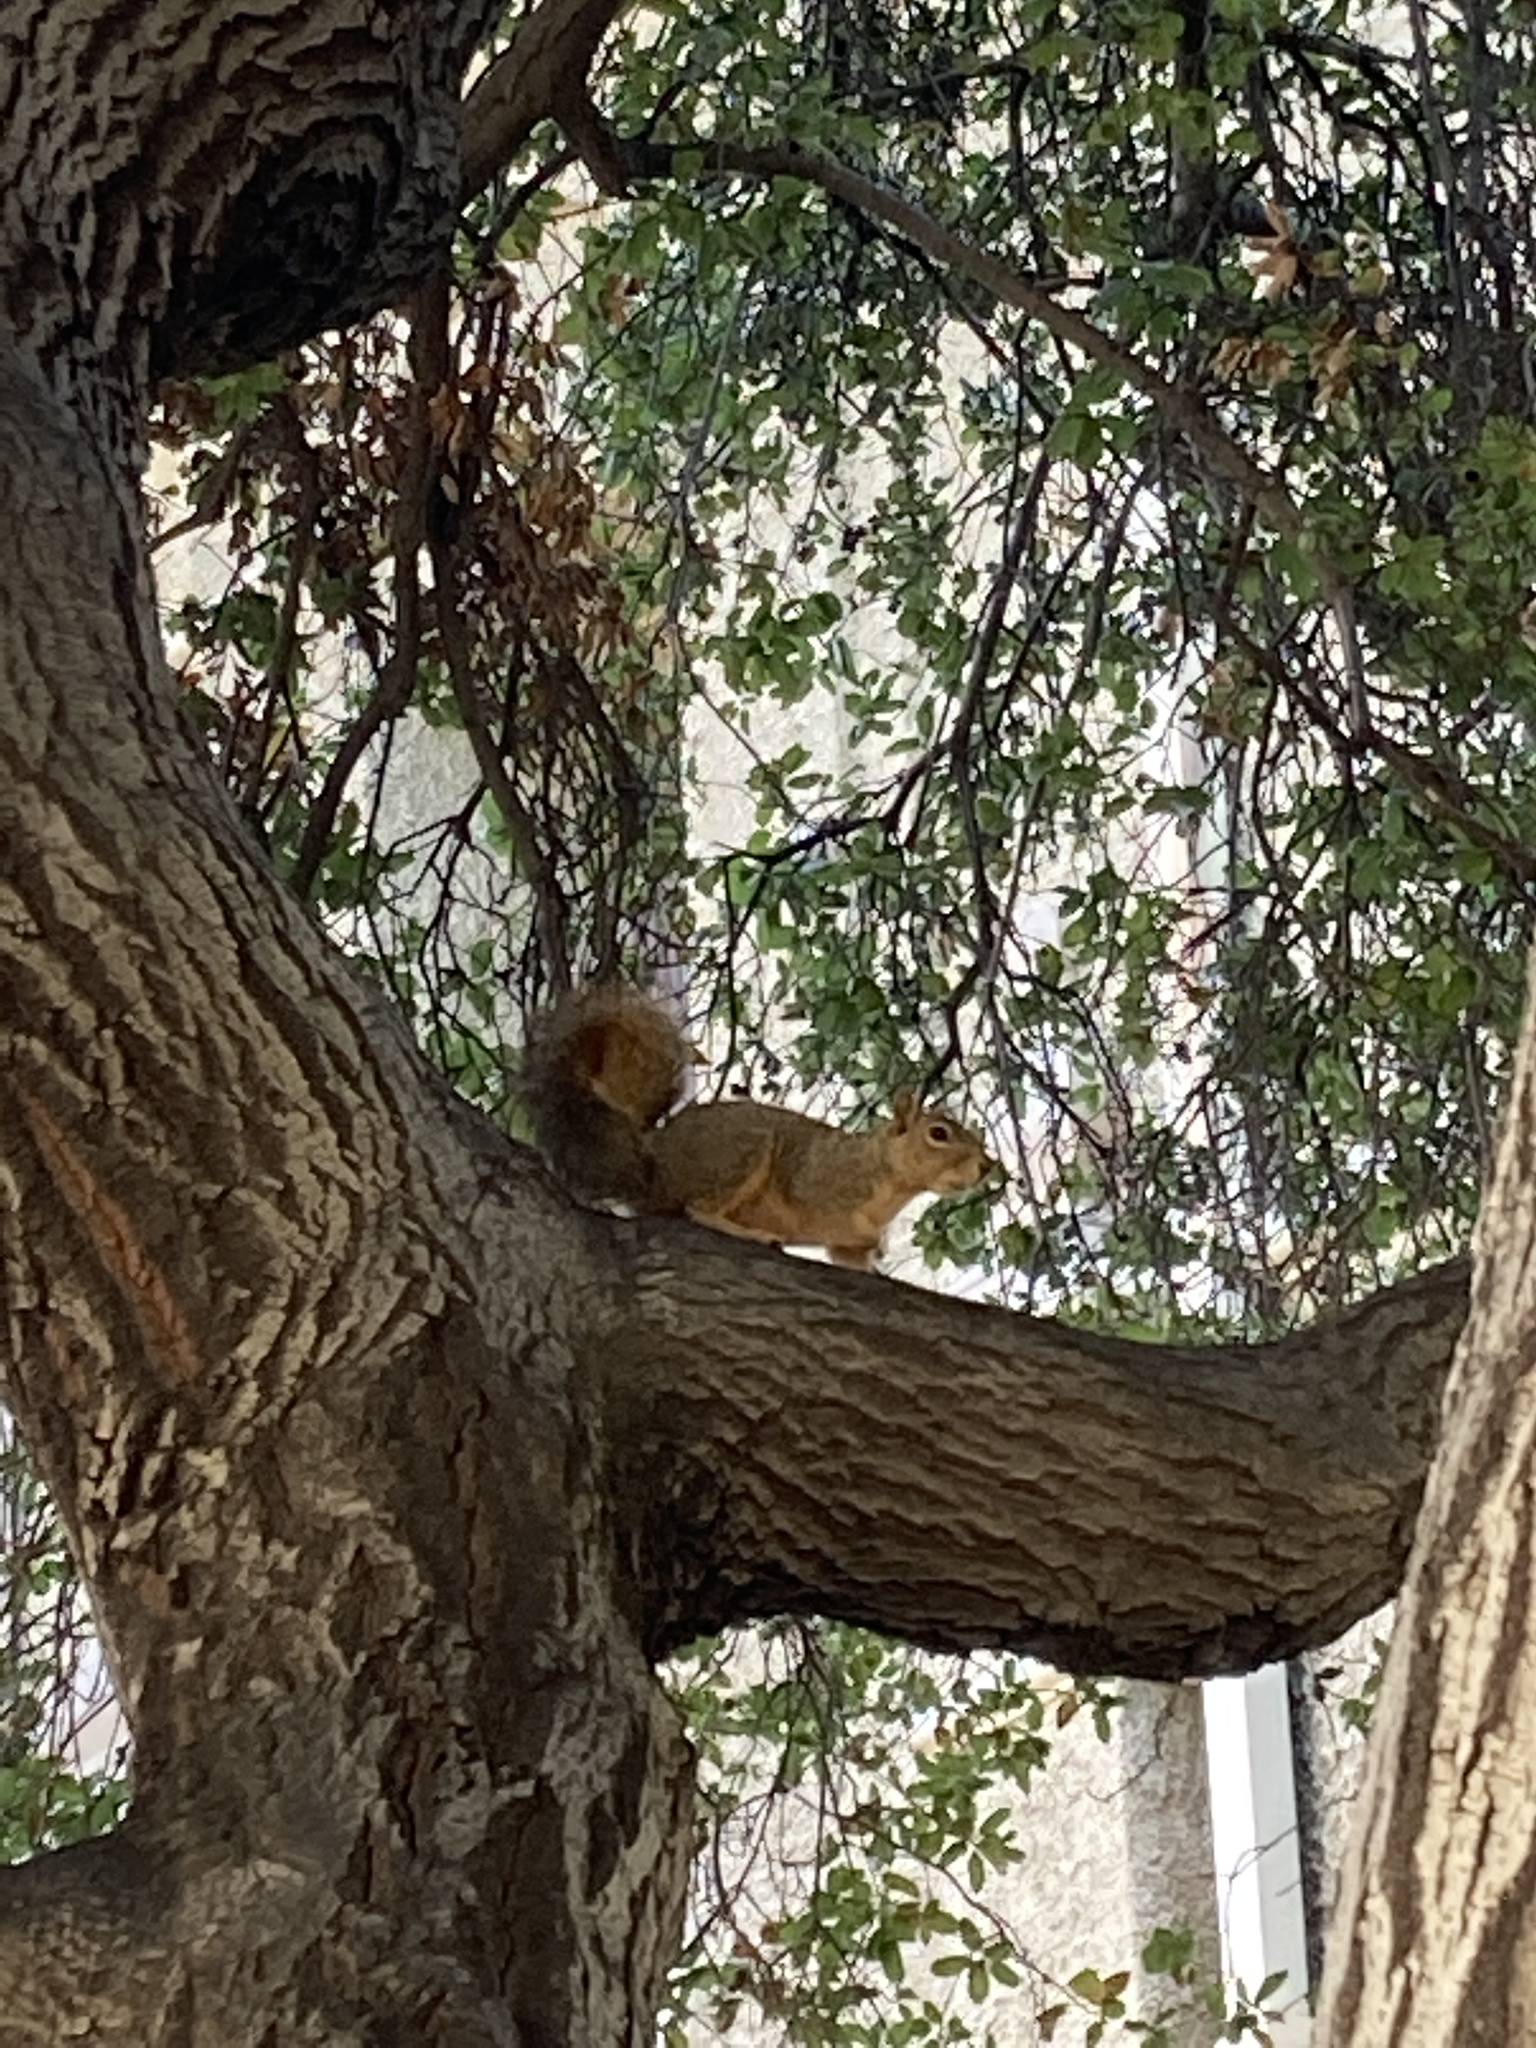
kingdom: Animalia
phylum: Chordata
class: Mammalia
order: Rodentia
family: Sciuridae
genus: Sciurus
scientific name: Sciurus niger
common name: Fox squirrel
